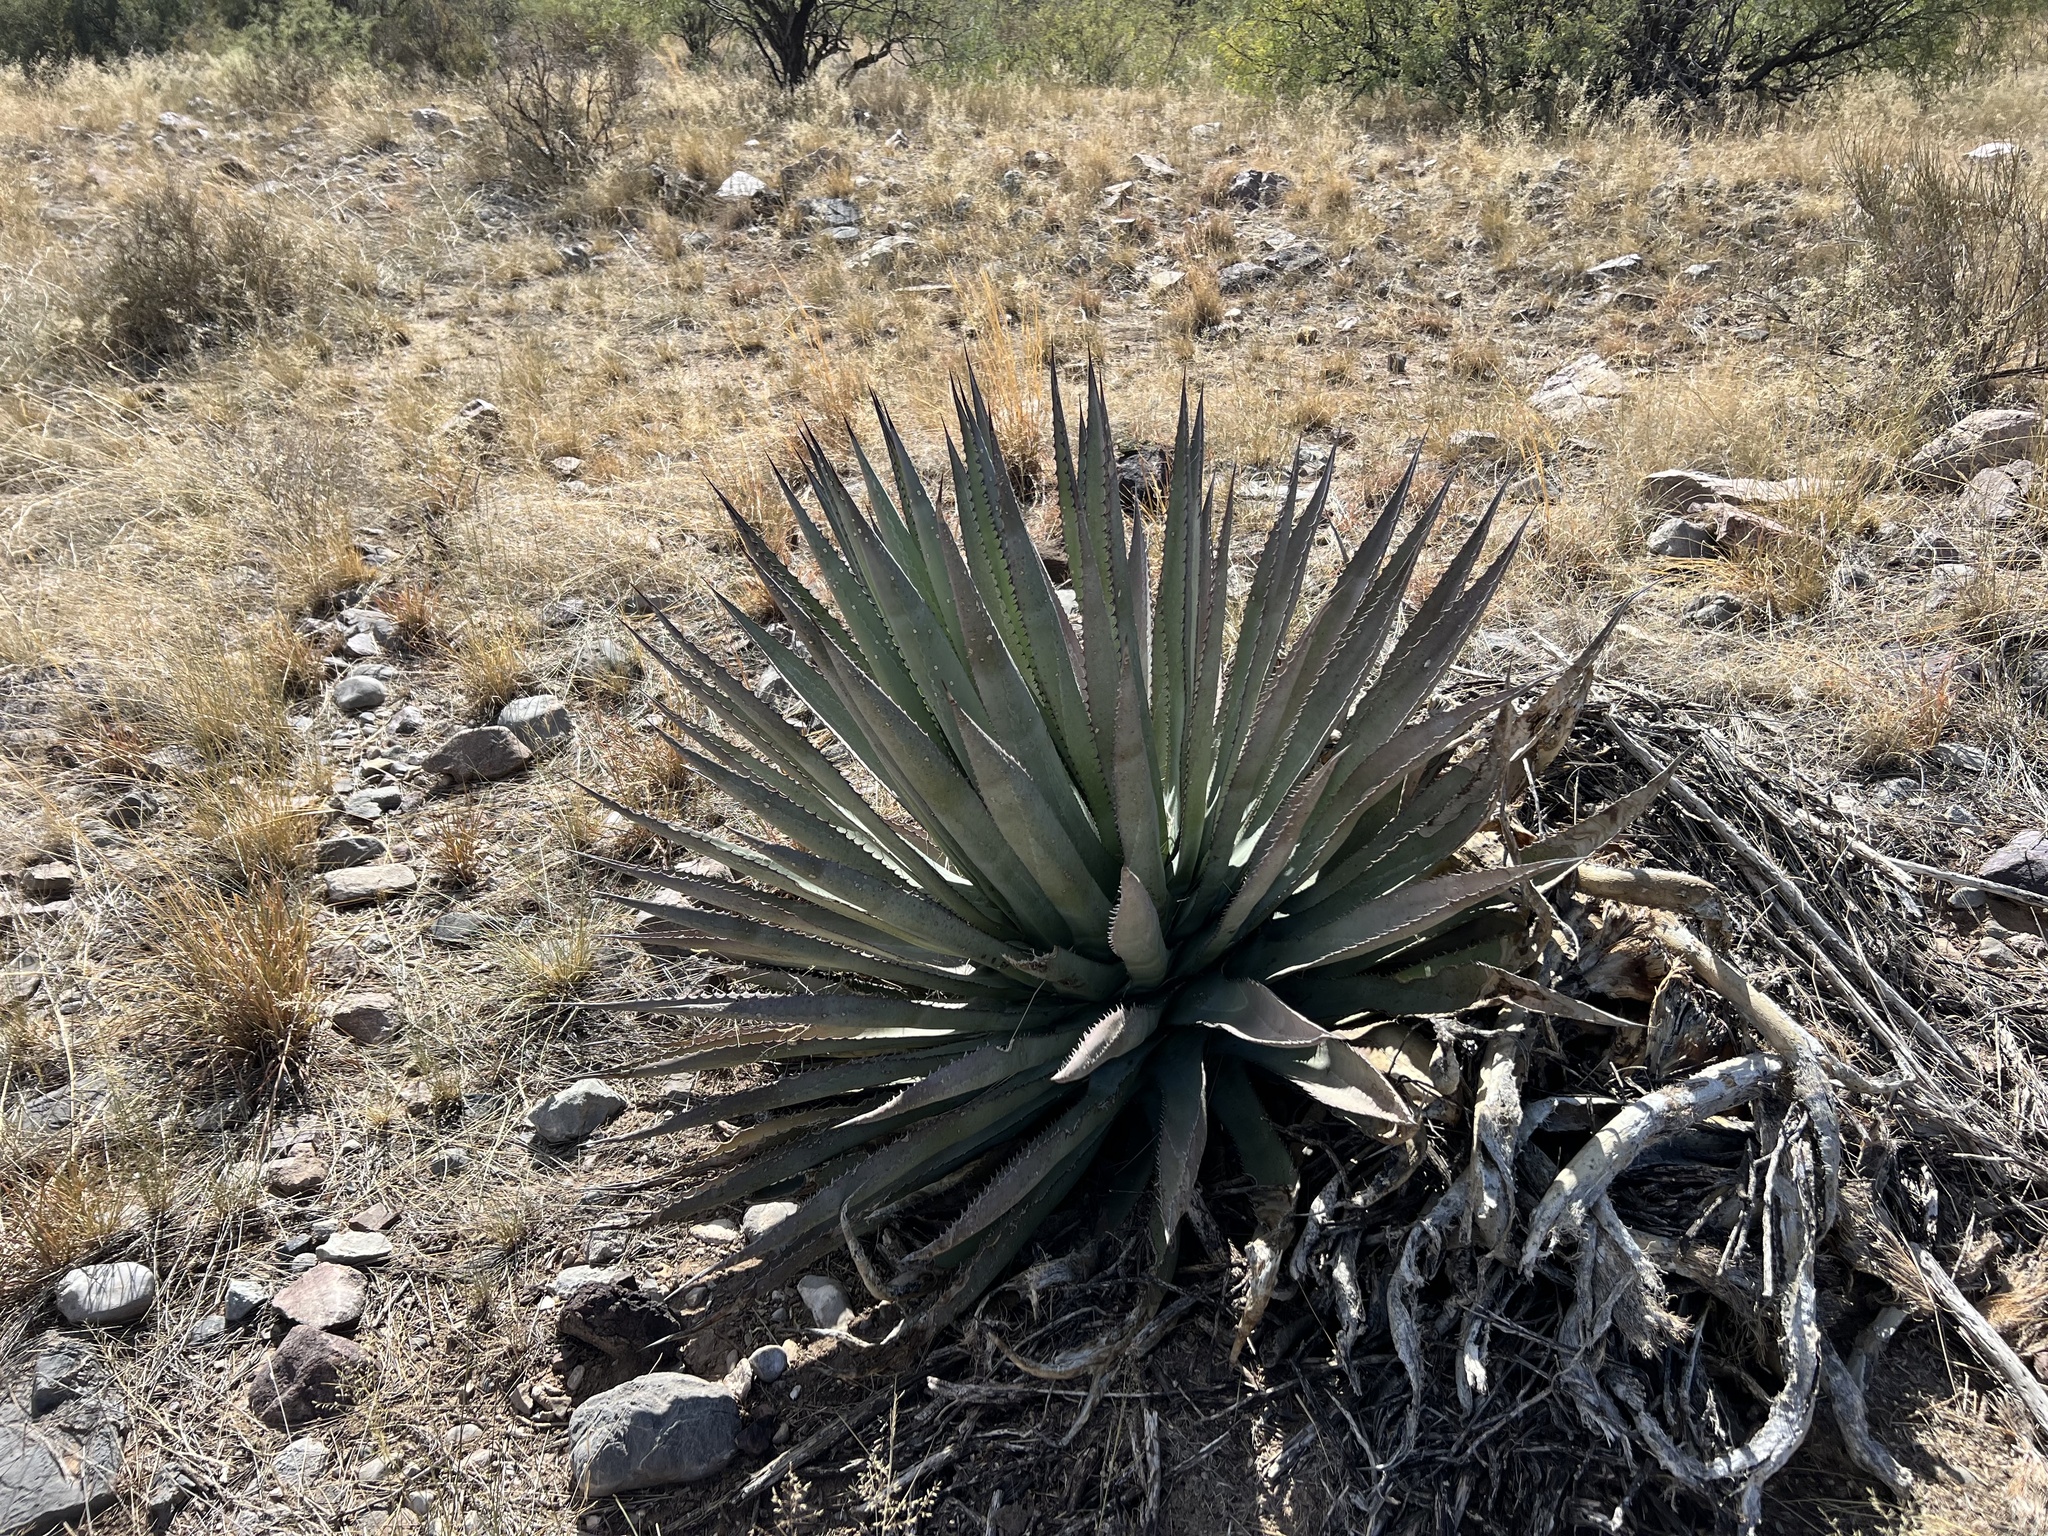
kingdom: Plantae
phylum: Tracheophyta
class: Liliopsida
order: Asparagales
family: Asparagaceae
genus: Agave
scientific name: Agave palmeri
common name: Palmer agave
